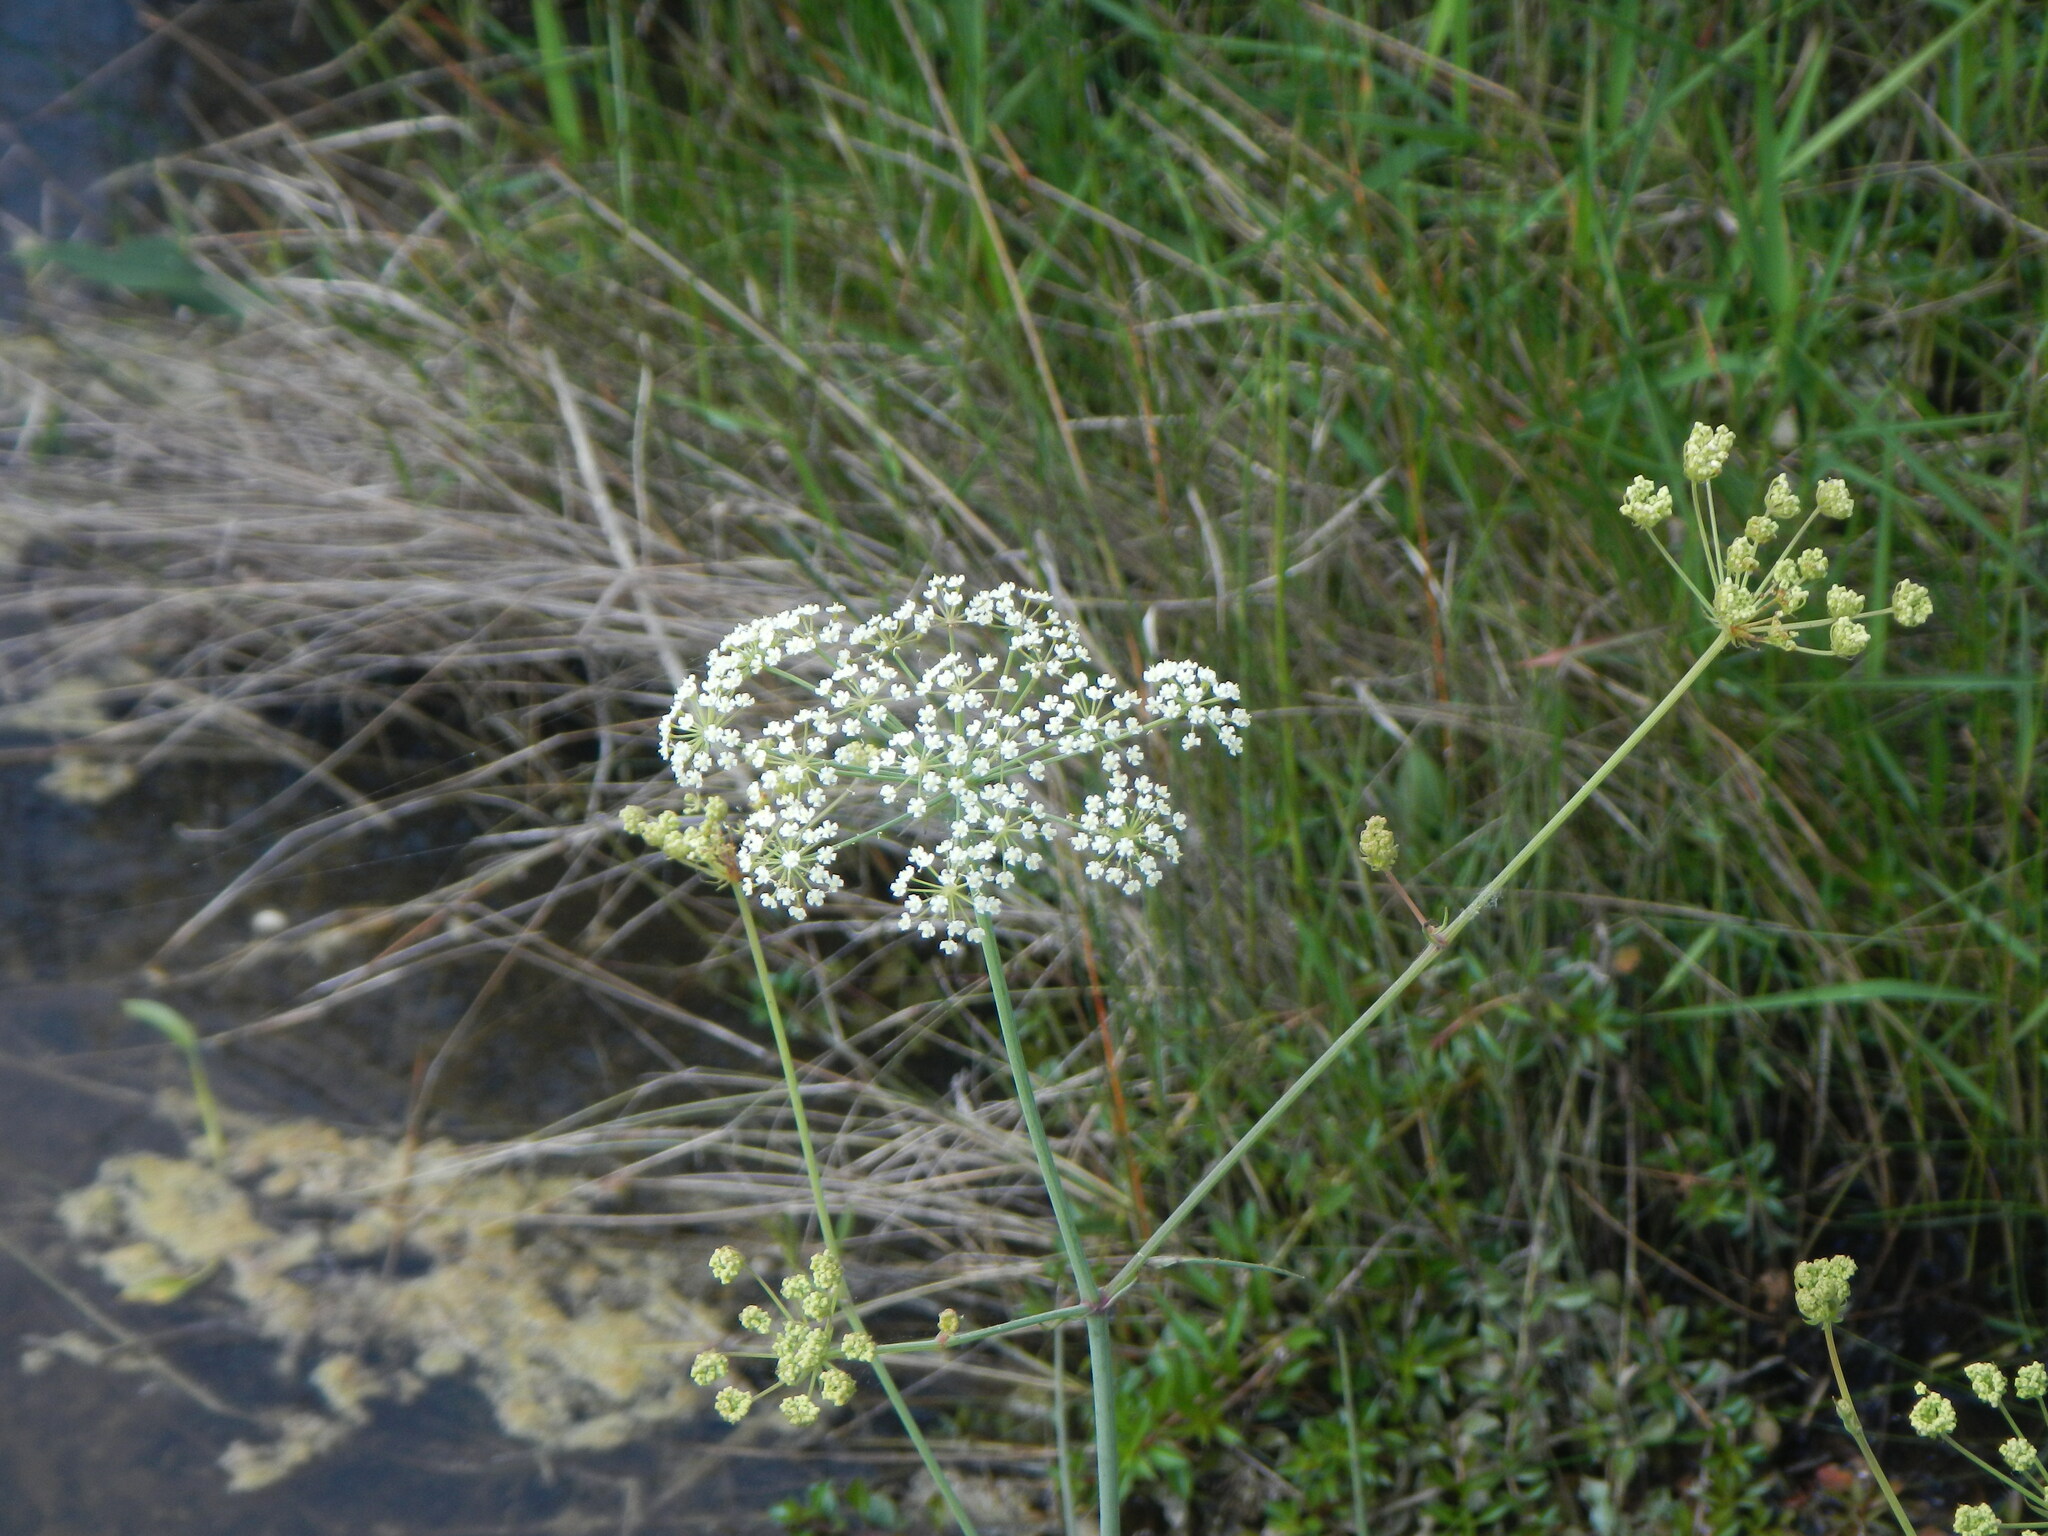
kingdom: Plantae
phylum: Tracheophyta
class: Magnoliopsida
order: Apiales
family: Apiaceae
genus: Tiedemannia
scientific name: Tiedemannia filiformis
